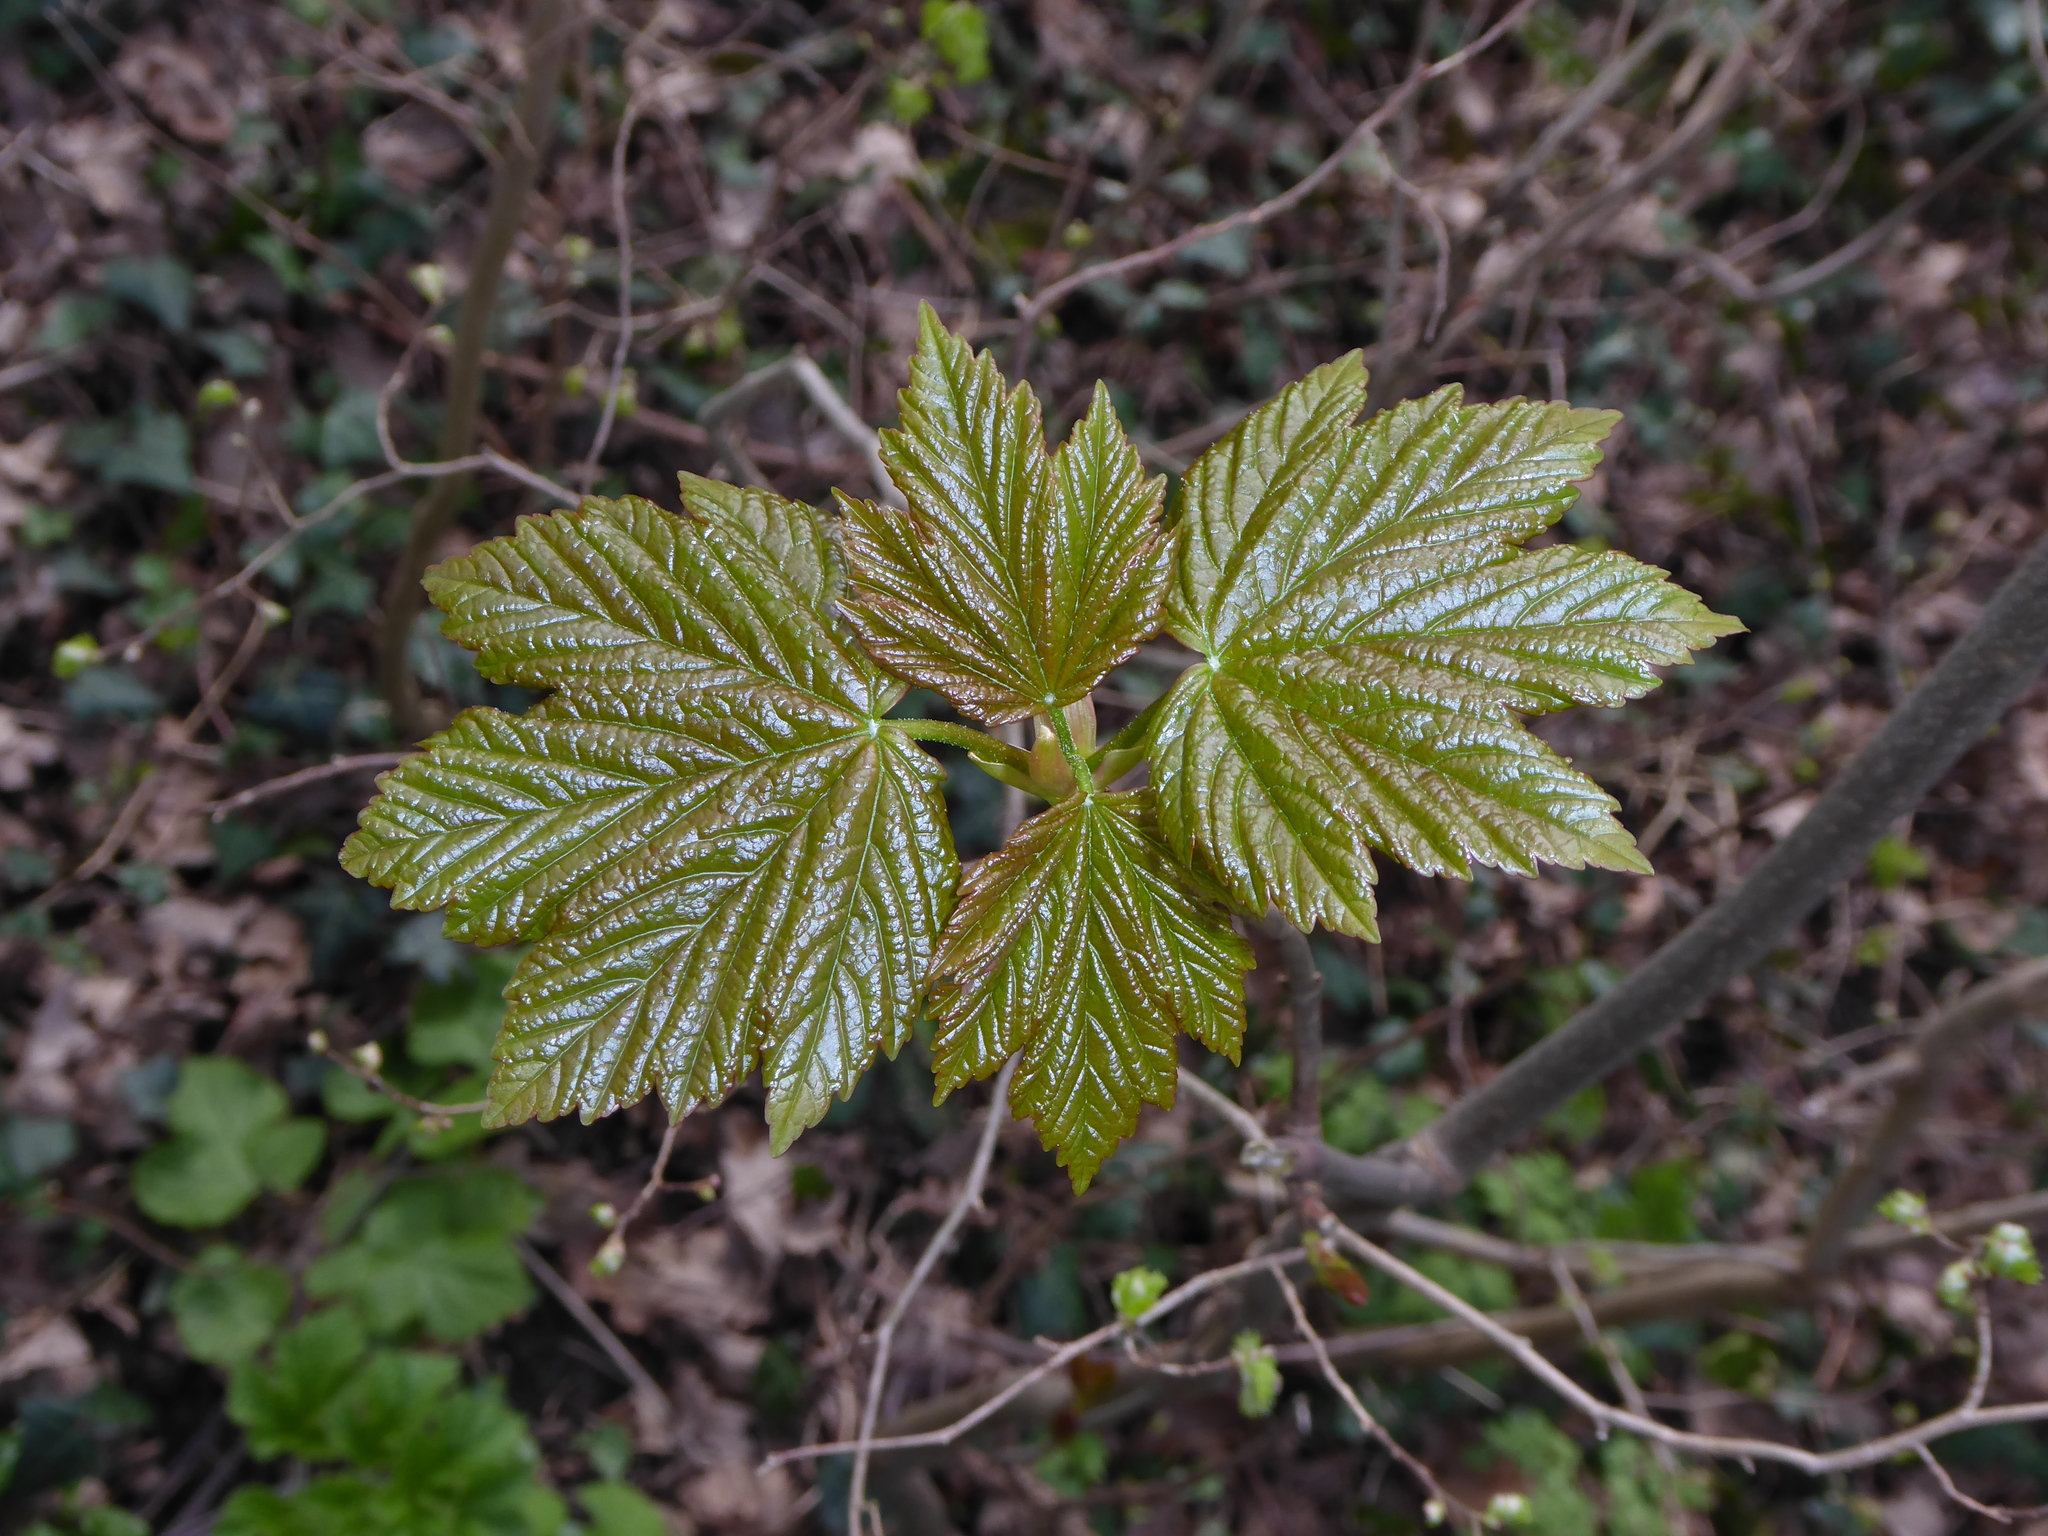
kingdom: Plantae
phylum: Tracheophyta
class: Magnoliopsida
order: Sapindales
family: Sapindaceae
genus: Acer
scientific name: Acer pseudoplatanus
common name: Sycamore
